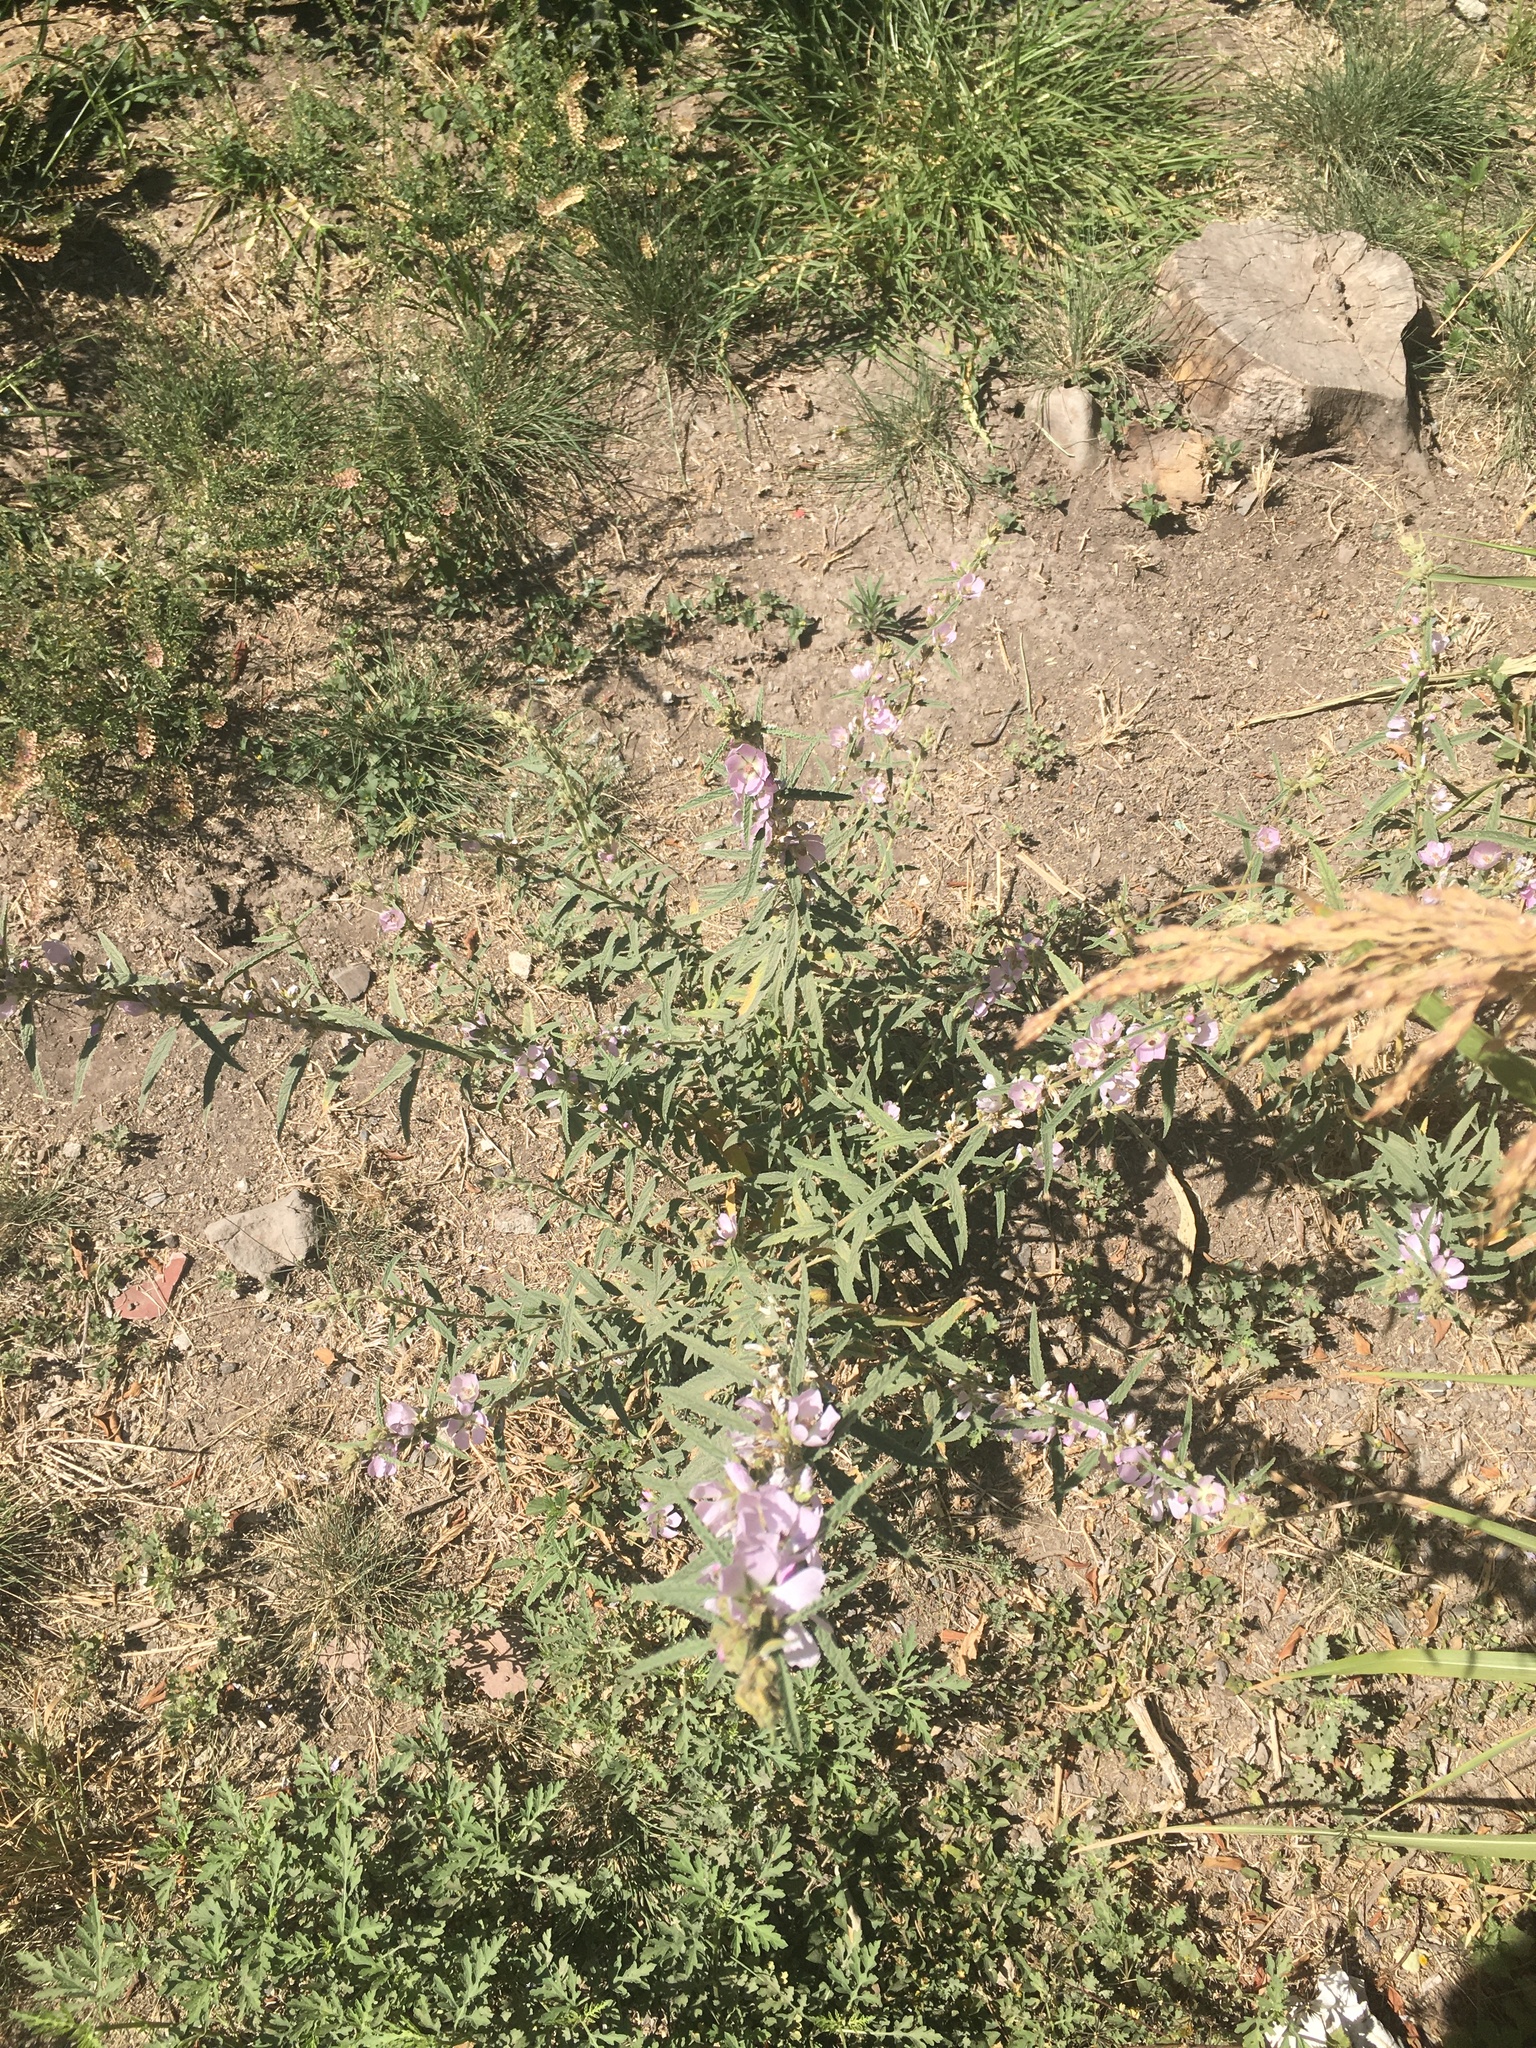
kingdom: Plantae
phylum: Tracheophyta
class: Magnoliopsida
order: Malvales
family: Malvaceae
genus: Sphaeralcea
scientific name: Sphaeralcea angustifolia
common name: Copper globe-mallow
